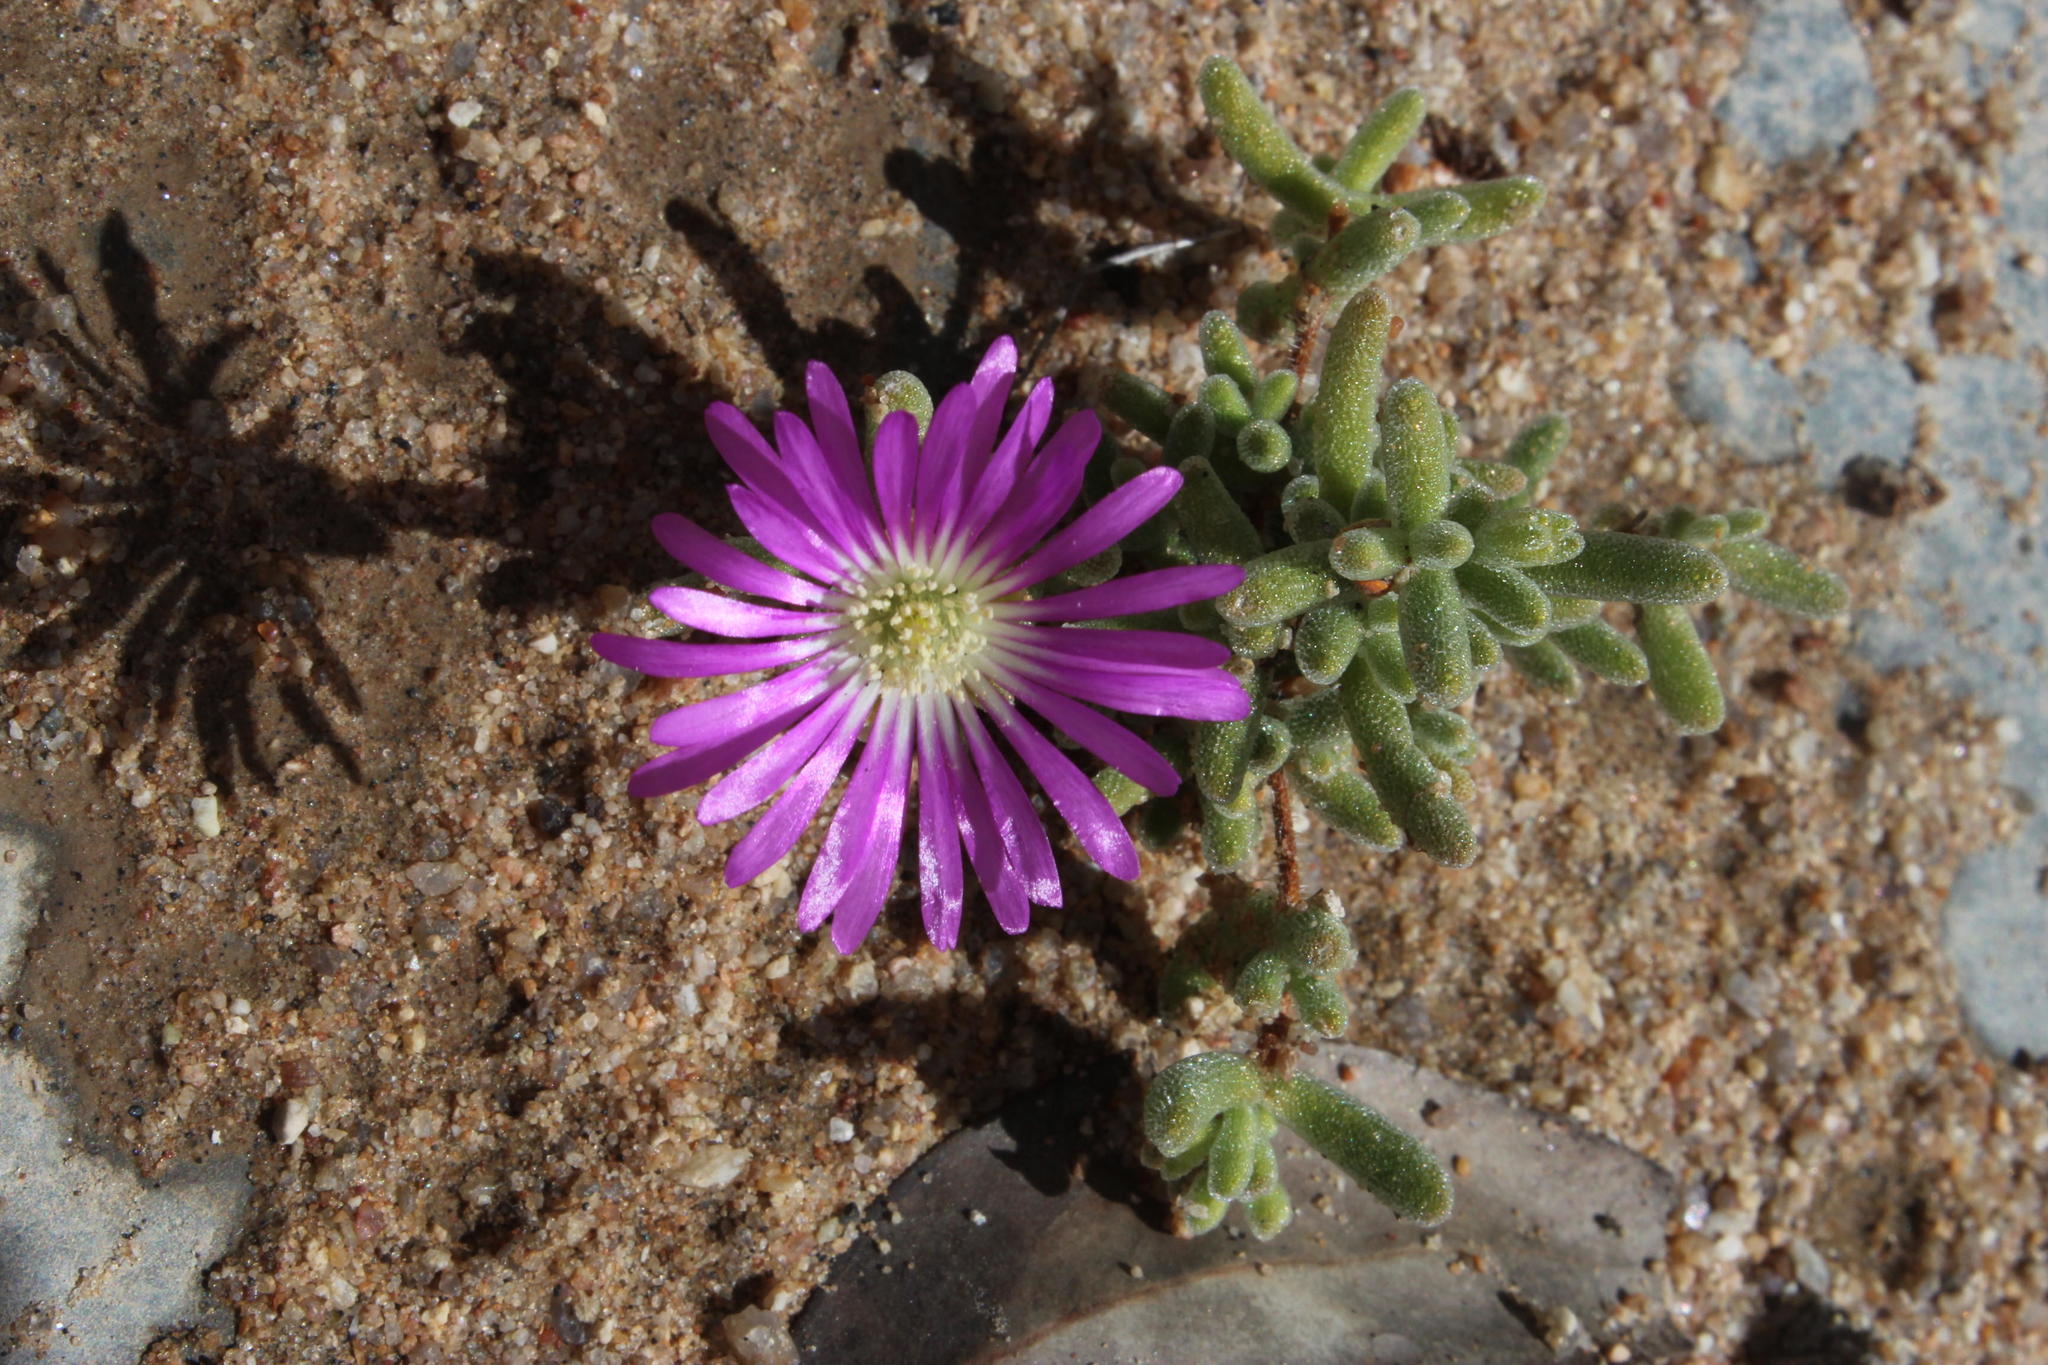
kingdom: Plantae
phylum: Tracheophyta
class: Magnoliopsida
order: Caryophyllales
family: Aizoaceae
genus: Drosanthemum
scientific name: Drosanthemum oculatum
